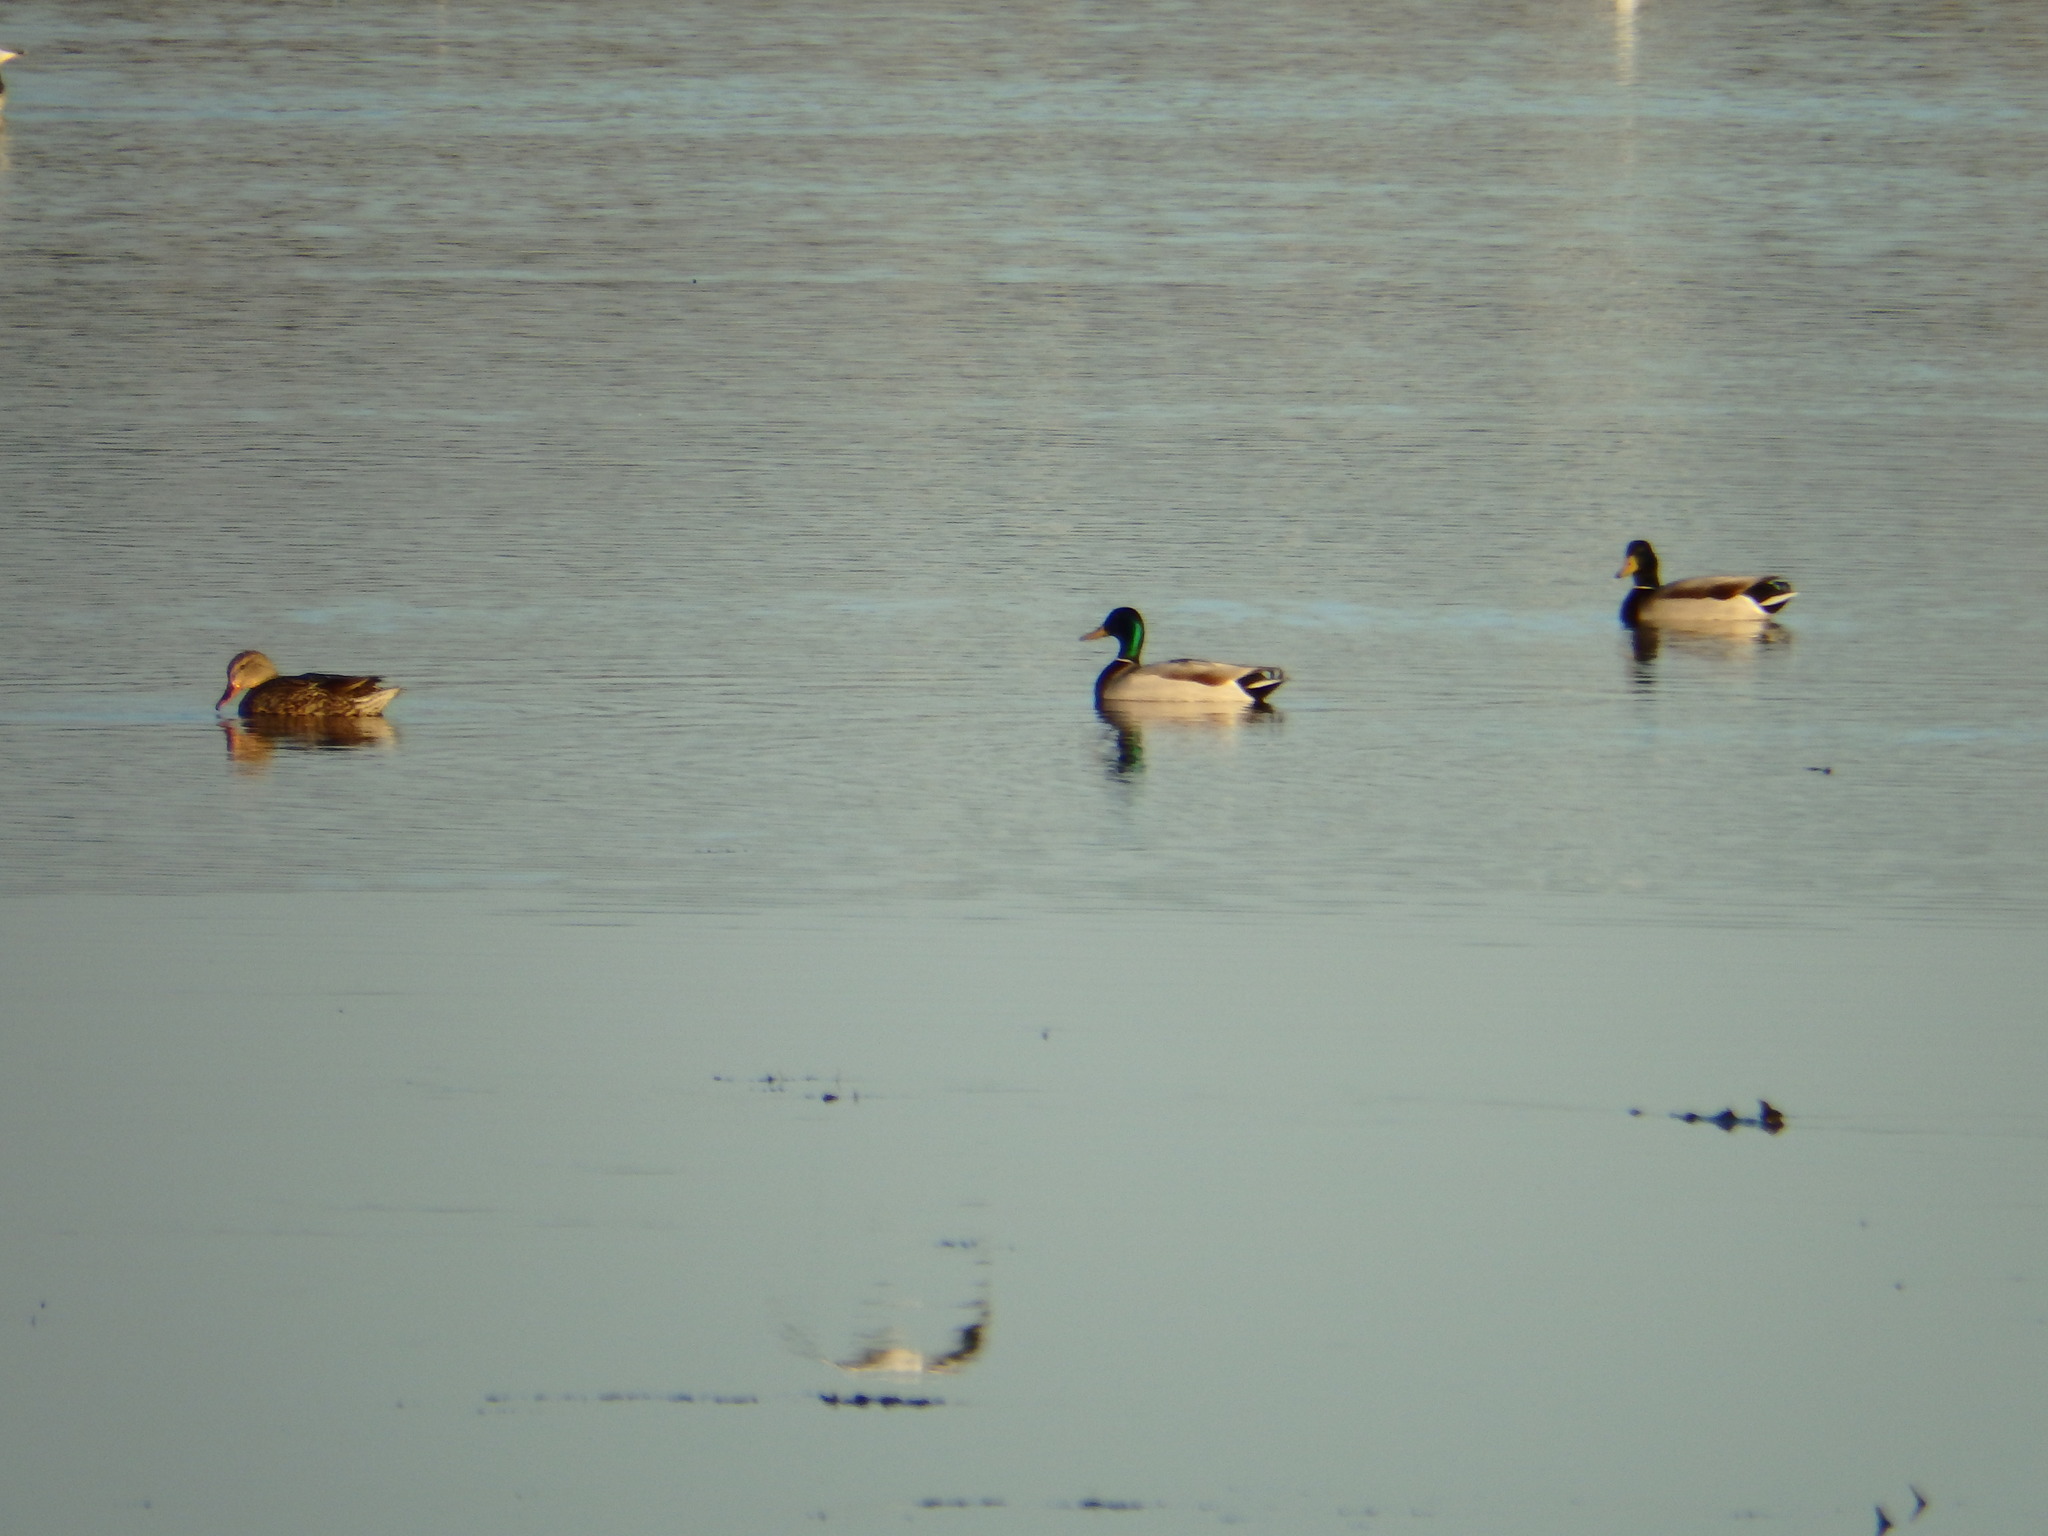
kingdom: Animalia
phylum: Chordata
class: Aves
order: Anseriformes
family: Anatidae
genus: Anas
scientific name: Anas platyrhynchos
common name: Mallard
